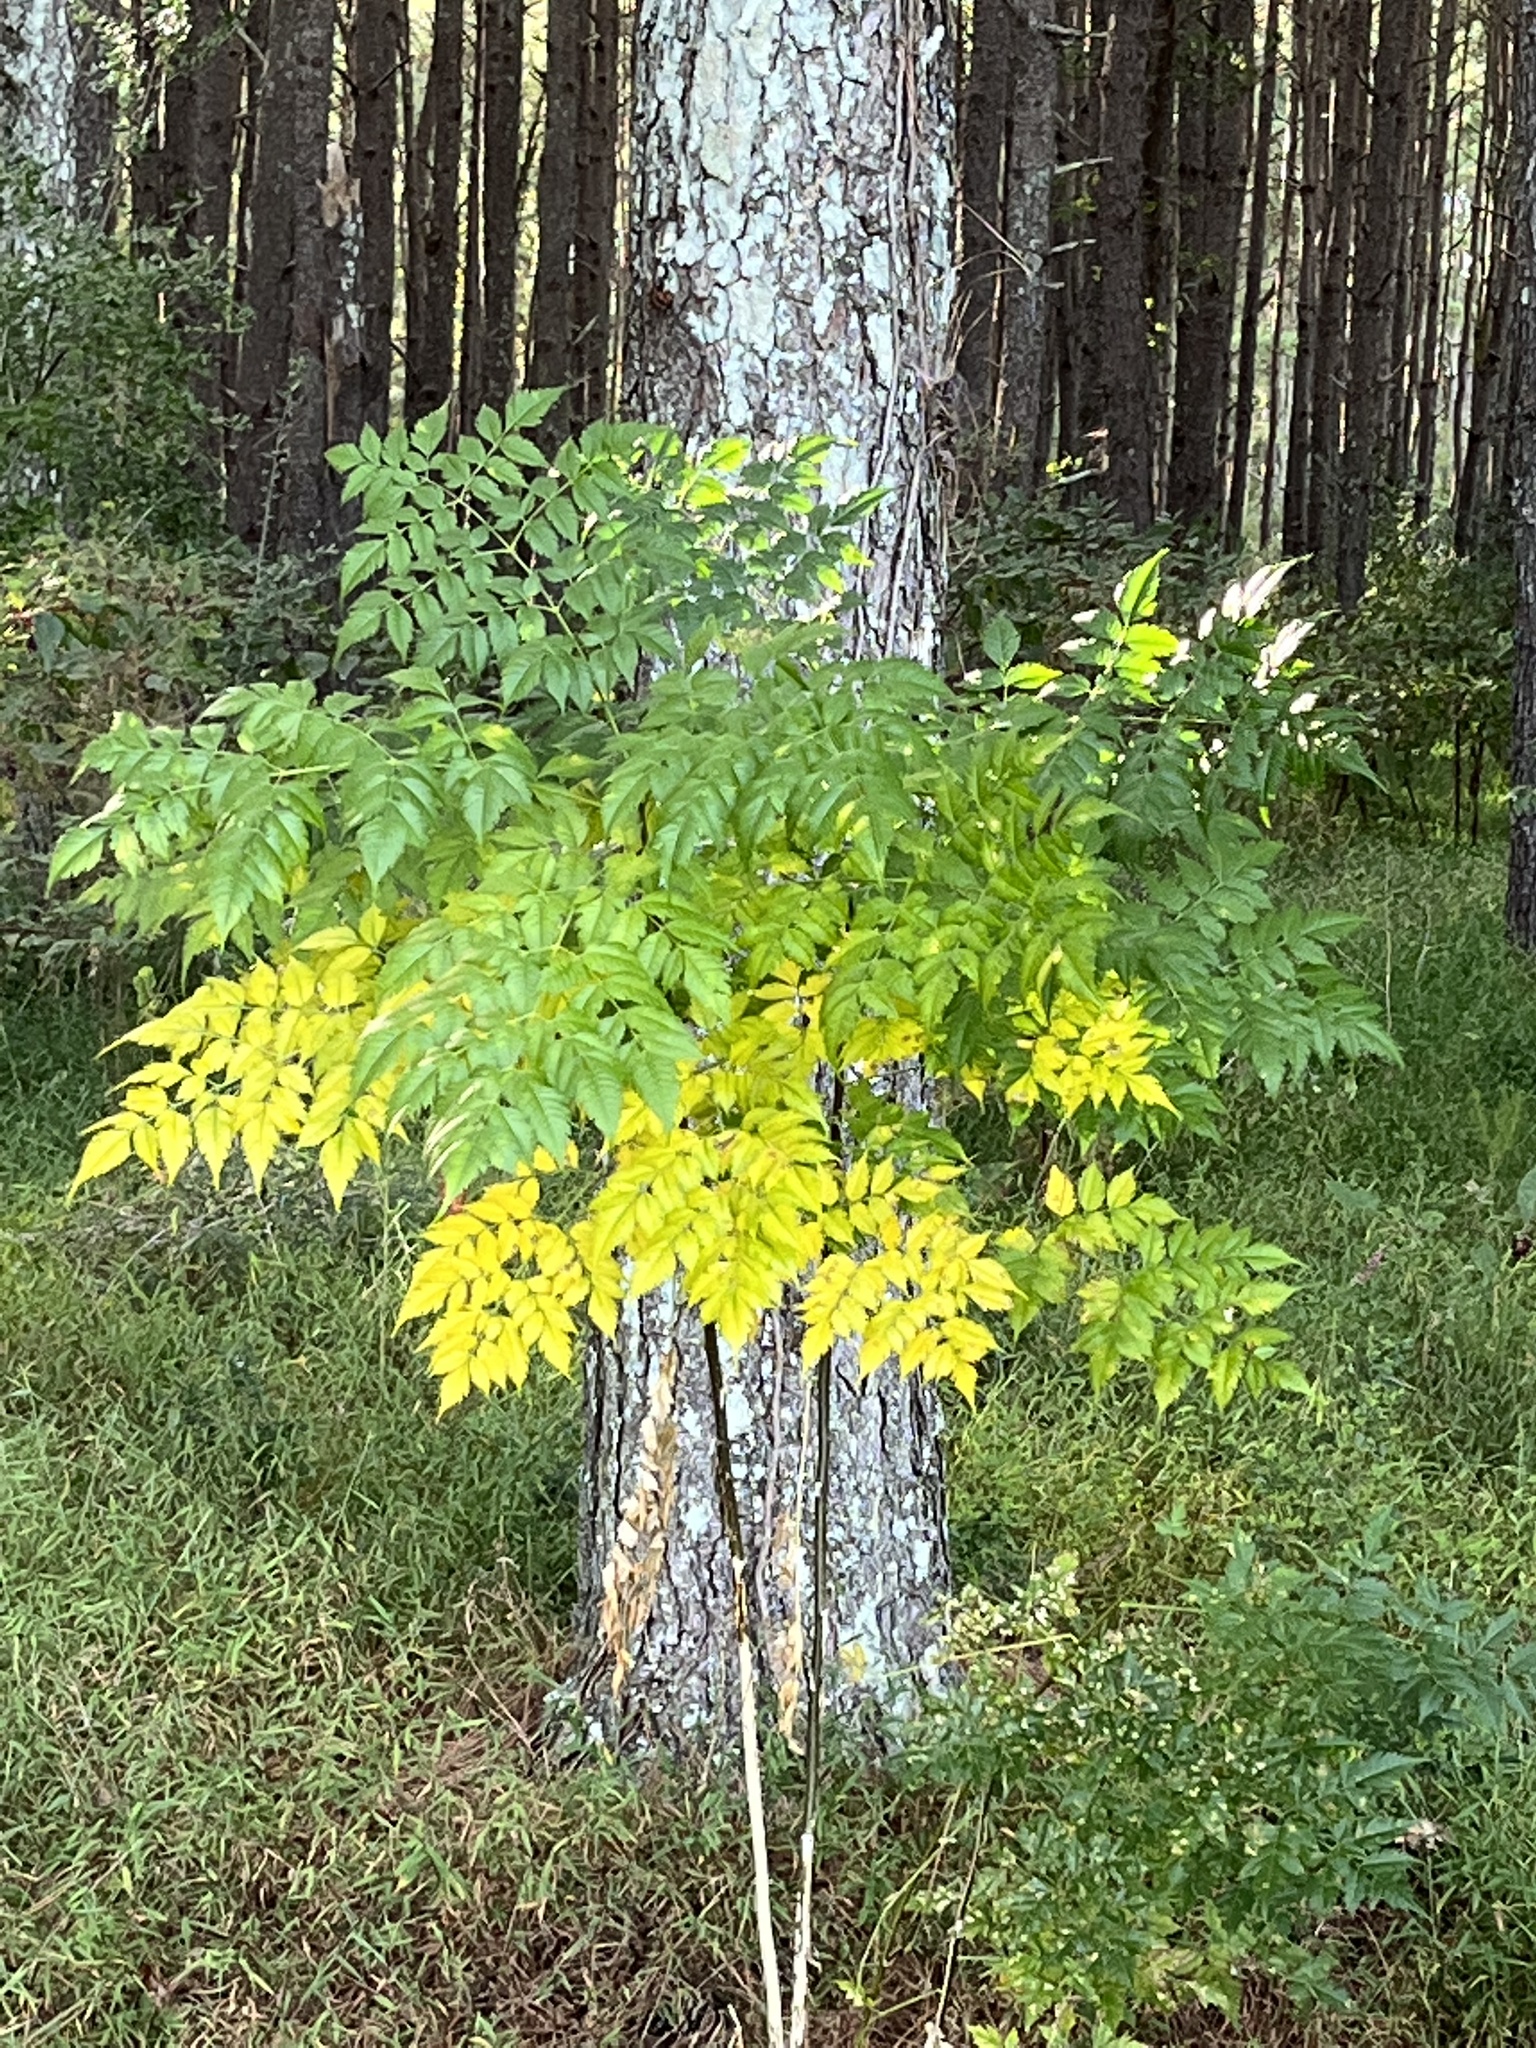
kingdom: Plantae
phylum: Tracheophyta
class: Magnoliopsida
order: Sapindales
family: Meliaceae
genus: Melia
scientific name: Melia azedarach
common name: Chinaberrytree
